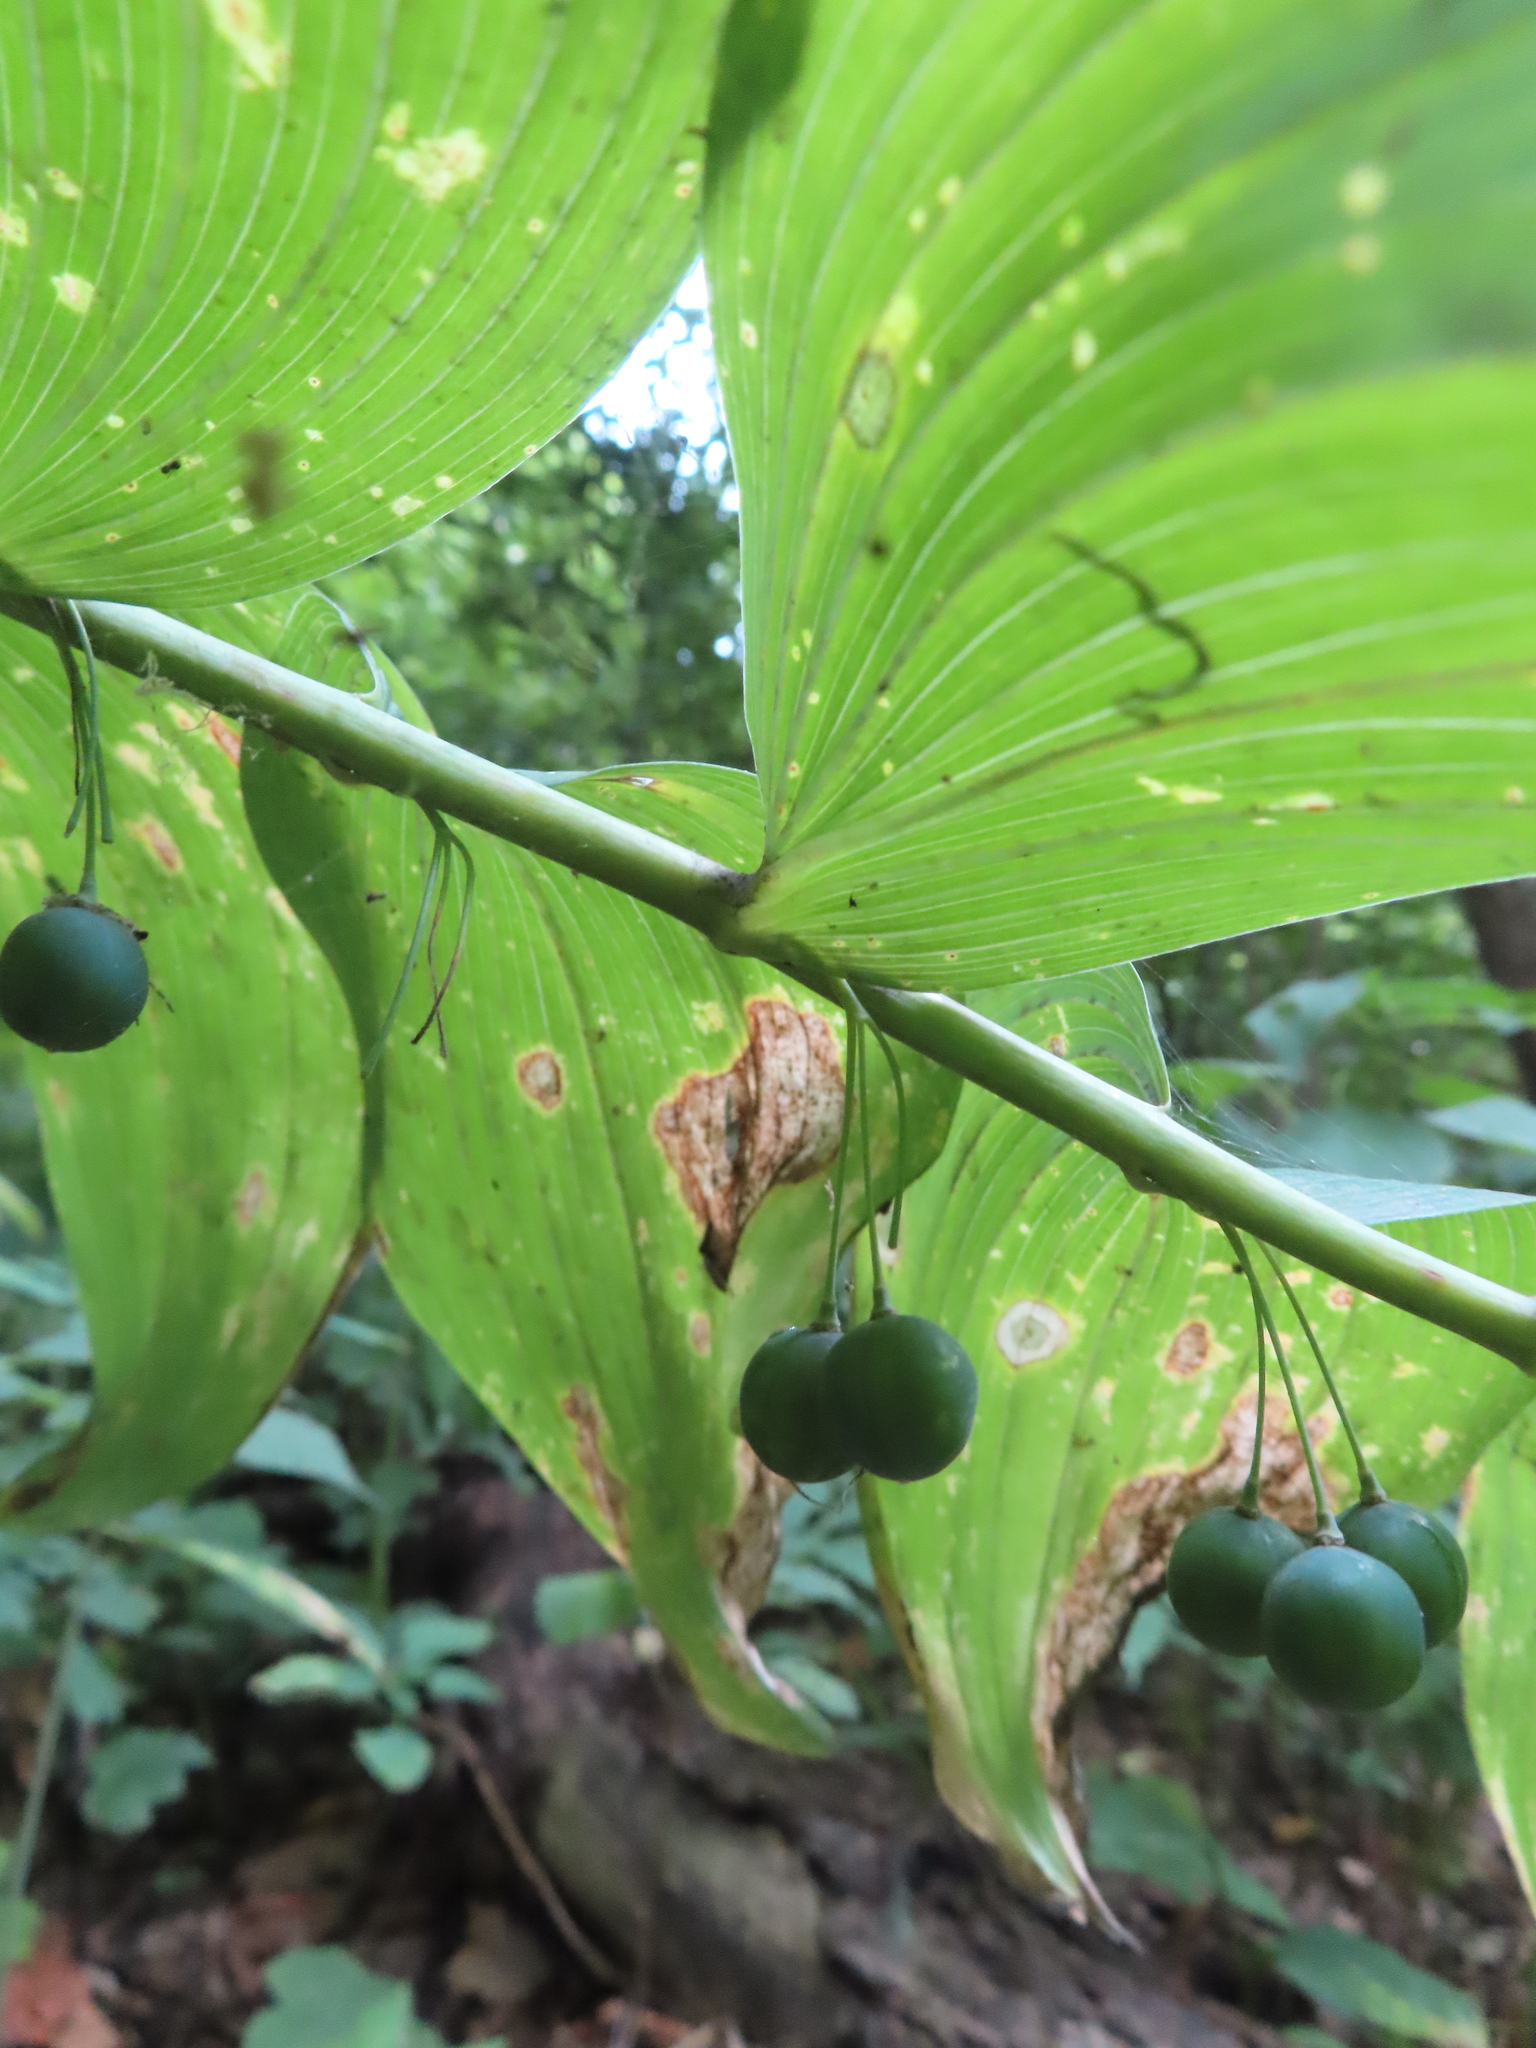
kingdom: Plantae
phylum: Tracheophyta
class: Liliopsida
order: Asparagales
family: Asparagaceae
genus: Polygonatum
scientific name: Polygonatum biflorum
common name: American solomon's-seal
